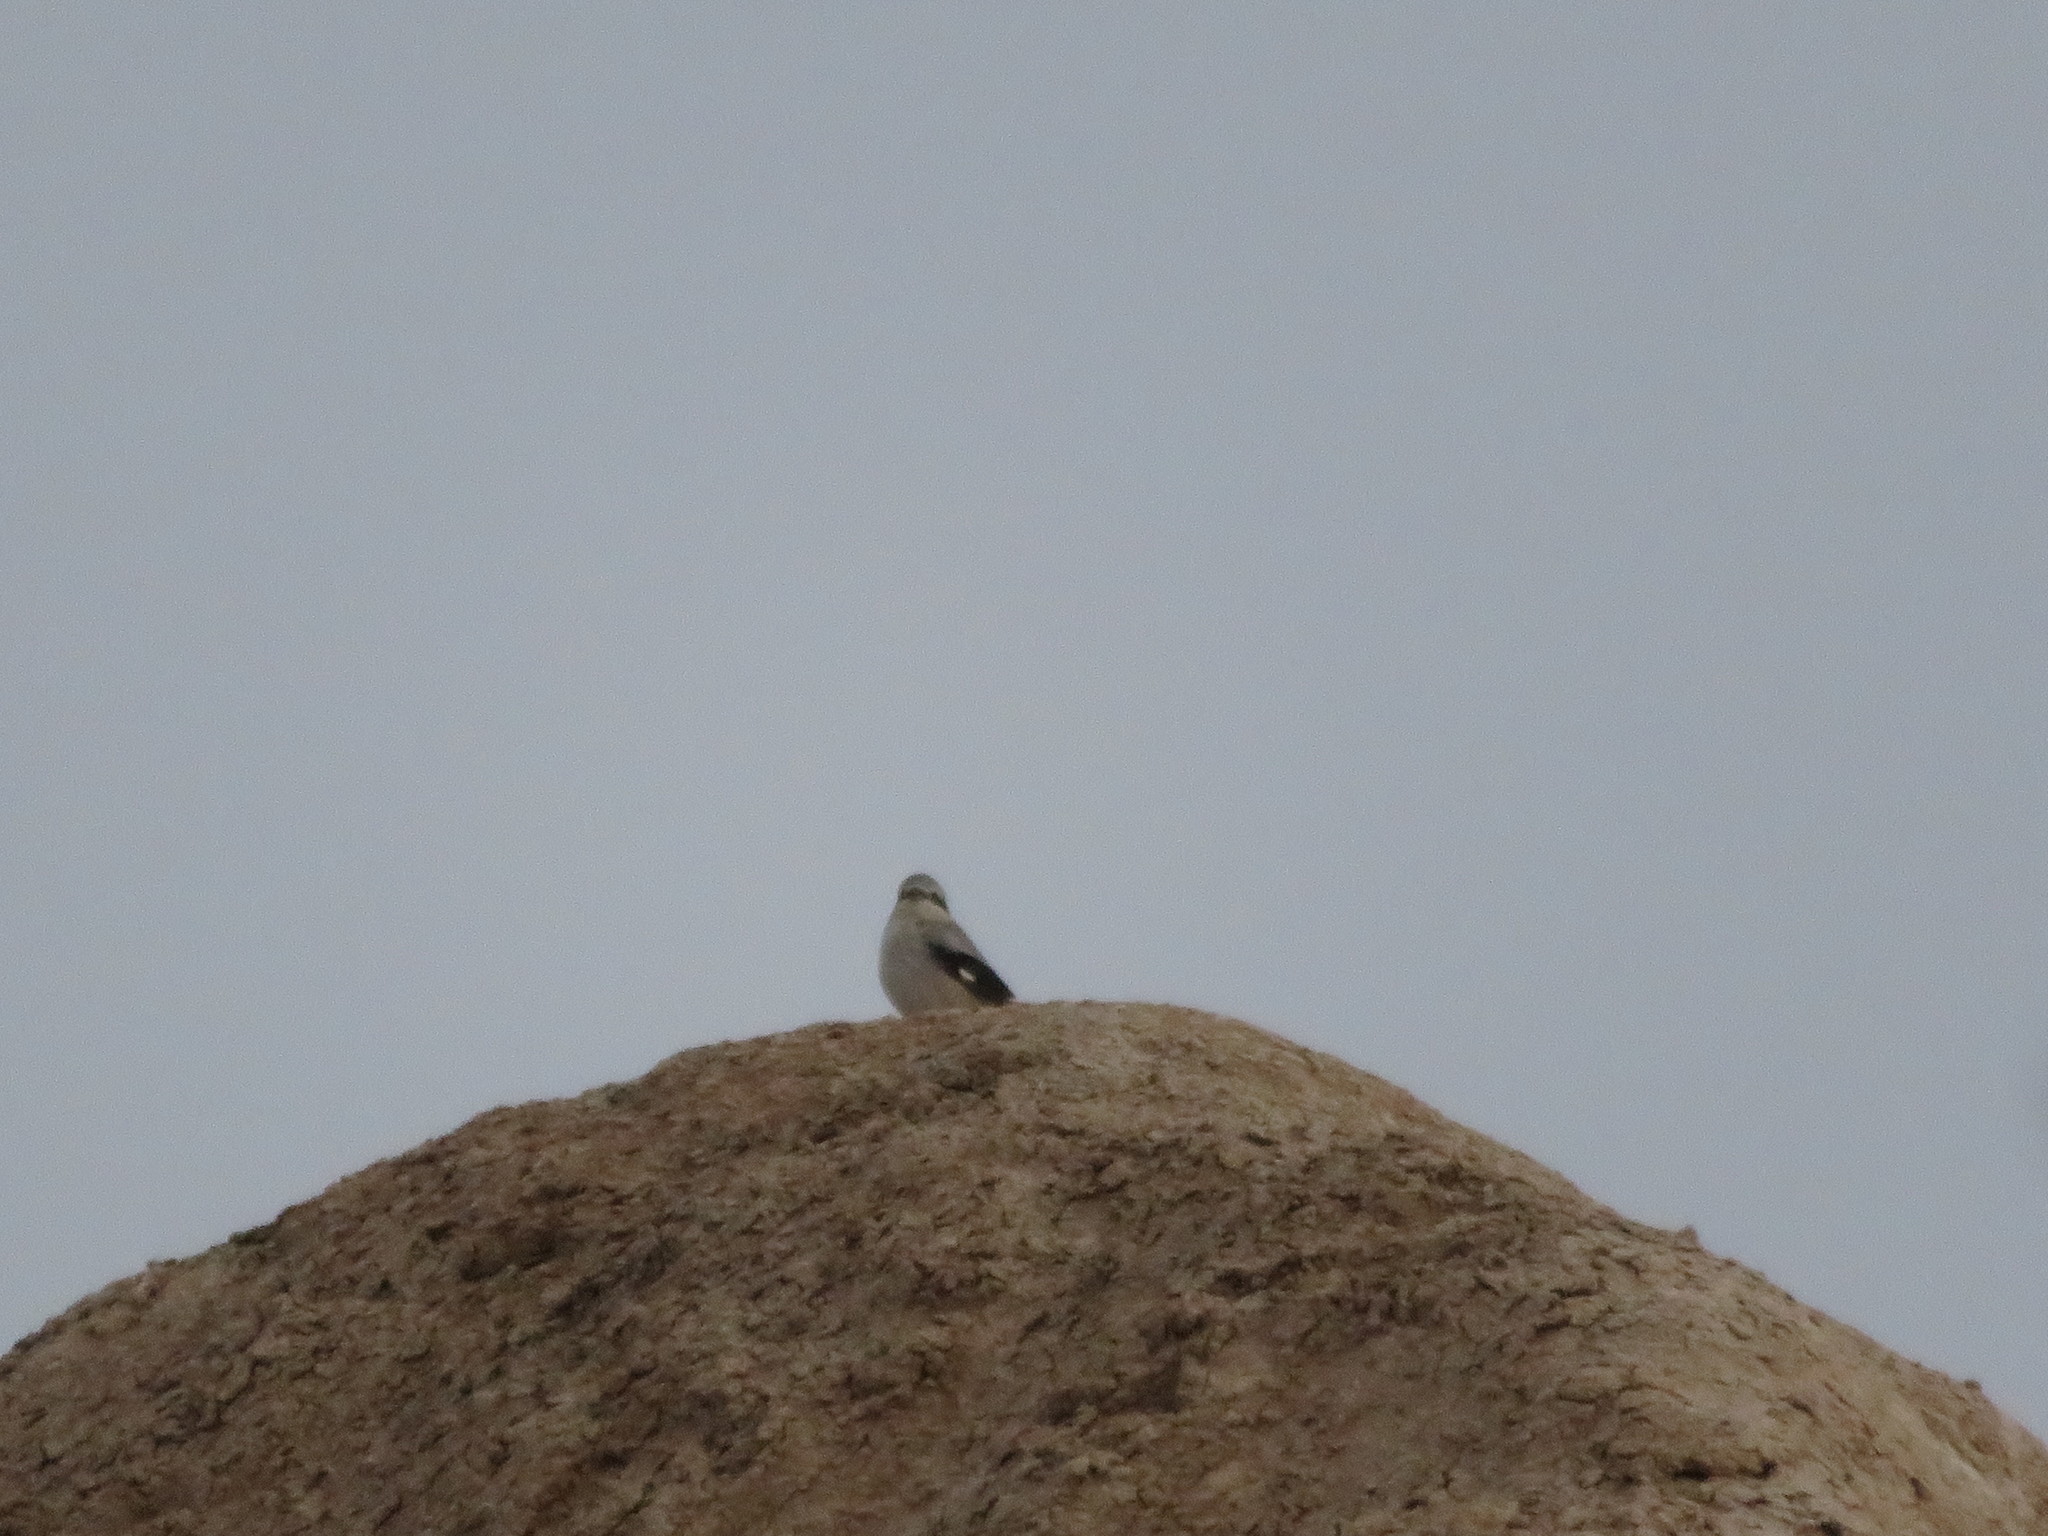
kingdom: Animalia
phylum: Chordata
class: Aves
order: Passeriformes
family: Laniidae
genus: Lanius
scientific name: Lanius borealis
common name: Northern shrike
